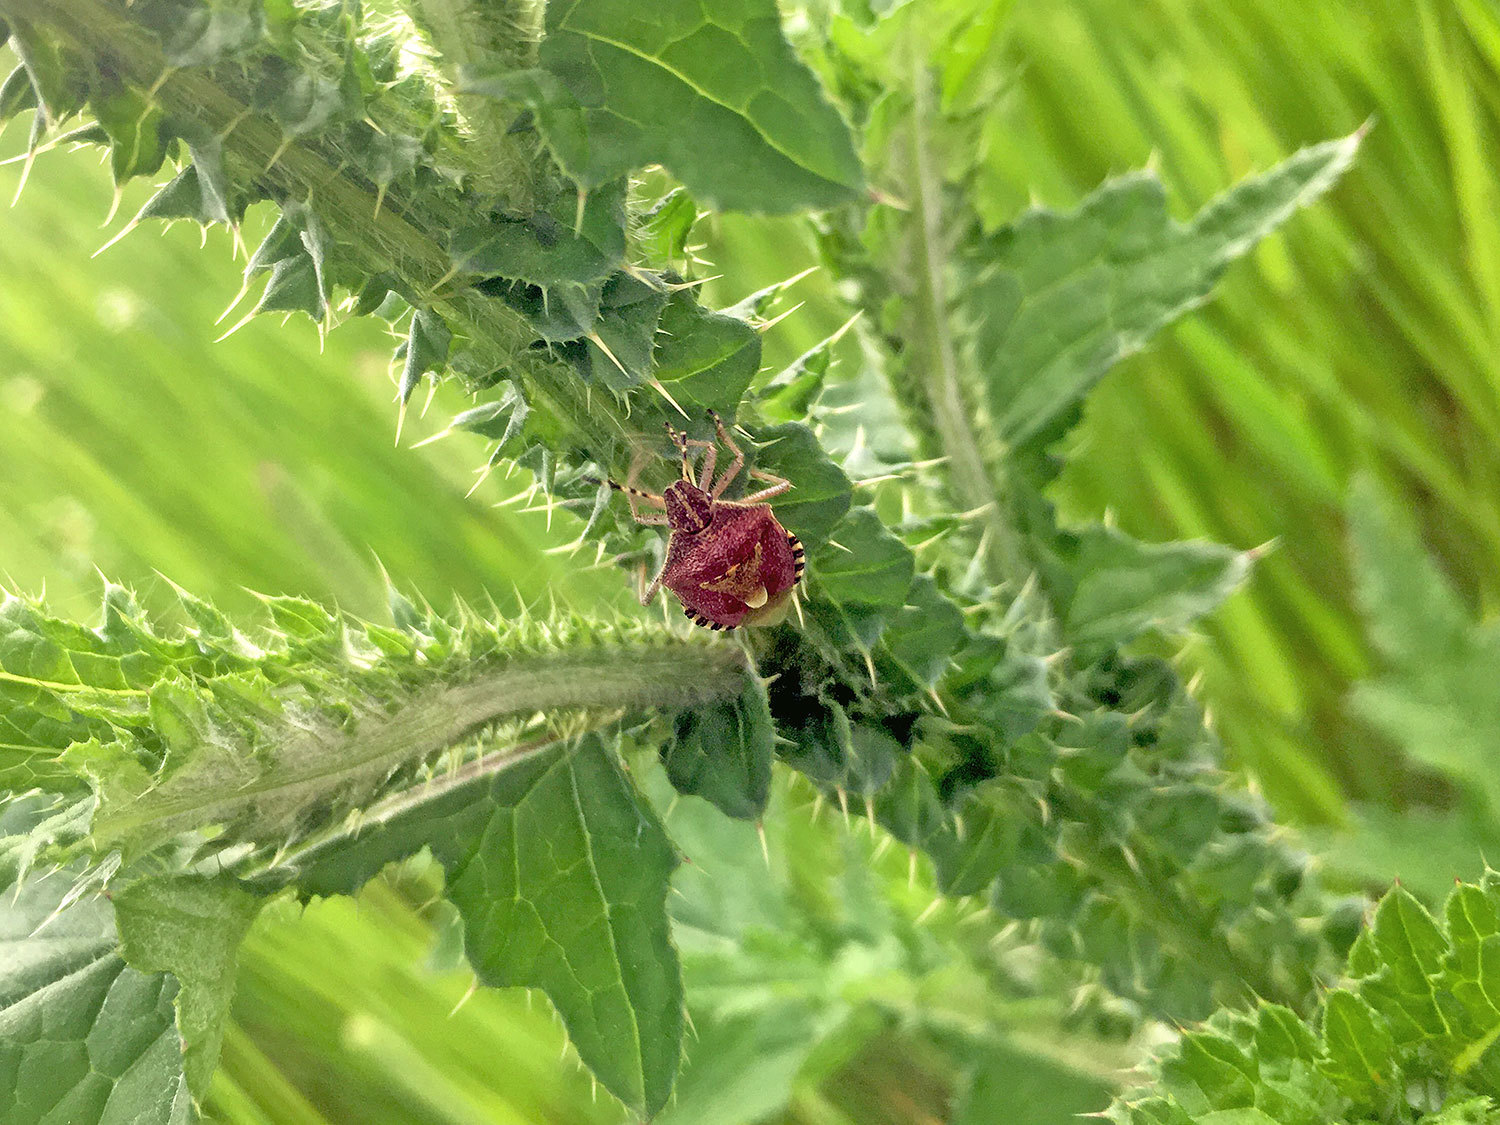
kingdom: Animalia
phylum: Arthropoda
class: Insecta
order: Hemiptera
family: Pentatomidae
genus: Dolycoris
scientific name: Dolycoris baccarum
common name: Sloe bug
